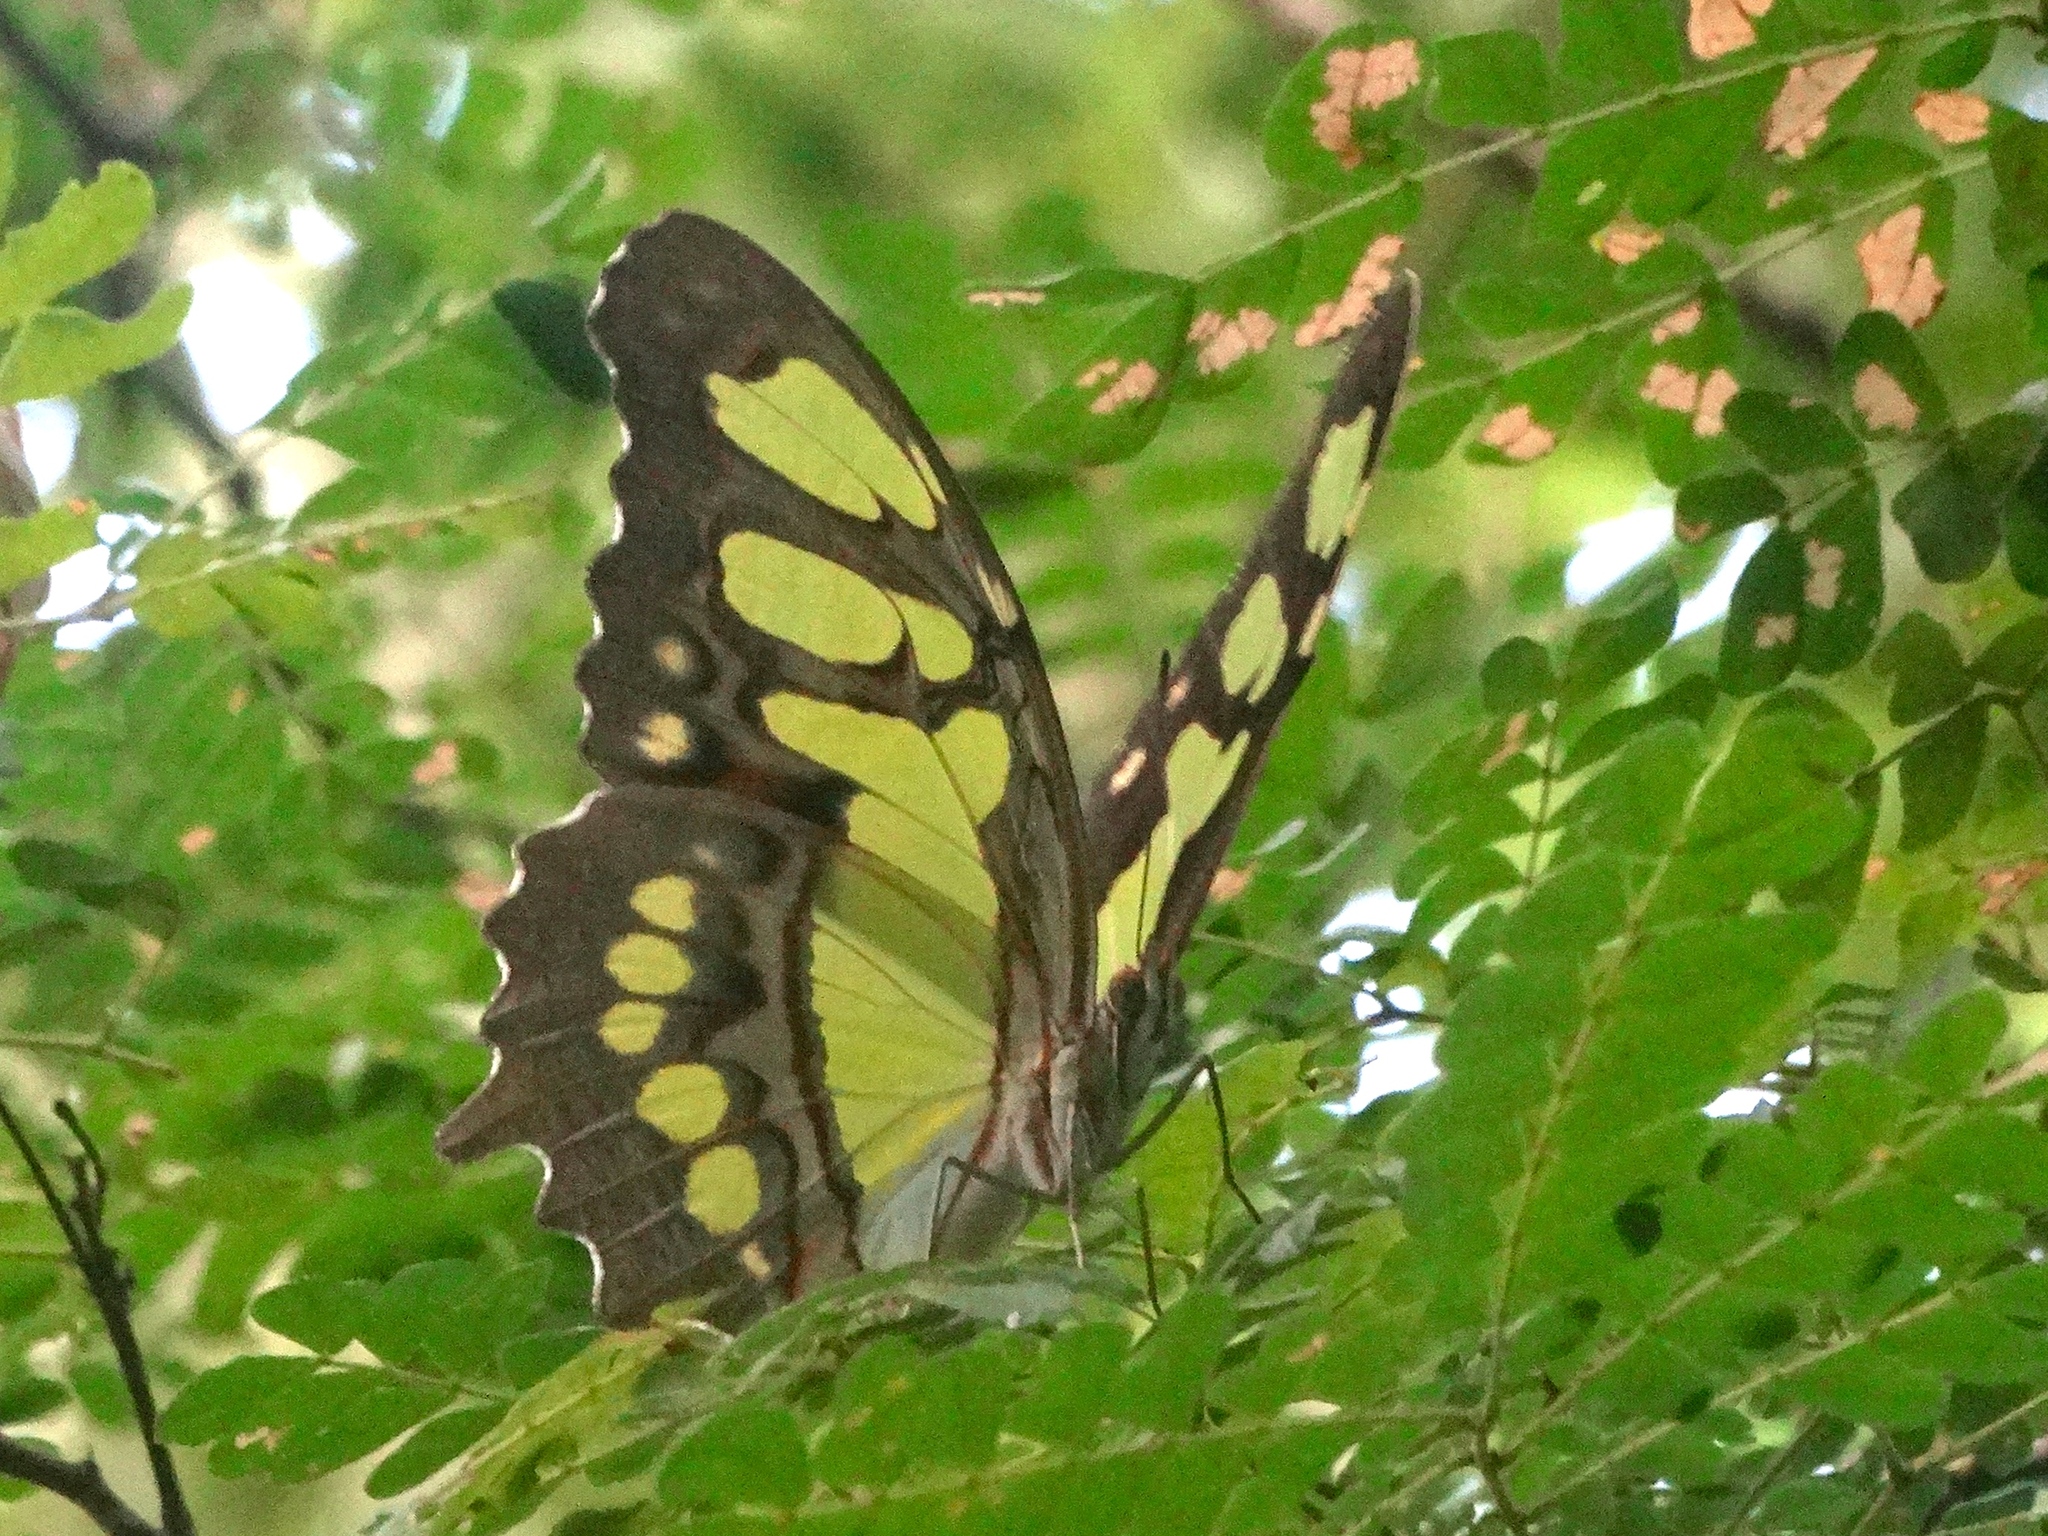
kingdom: Animalia
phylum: Arthropoda
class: Insecta
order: Lepidoptera
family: Nymphalidae
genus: Siproeta
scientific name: Siproeta stelenes
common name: Malachite
